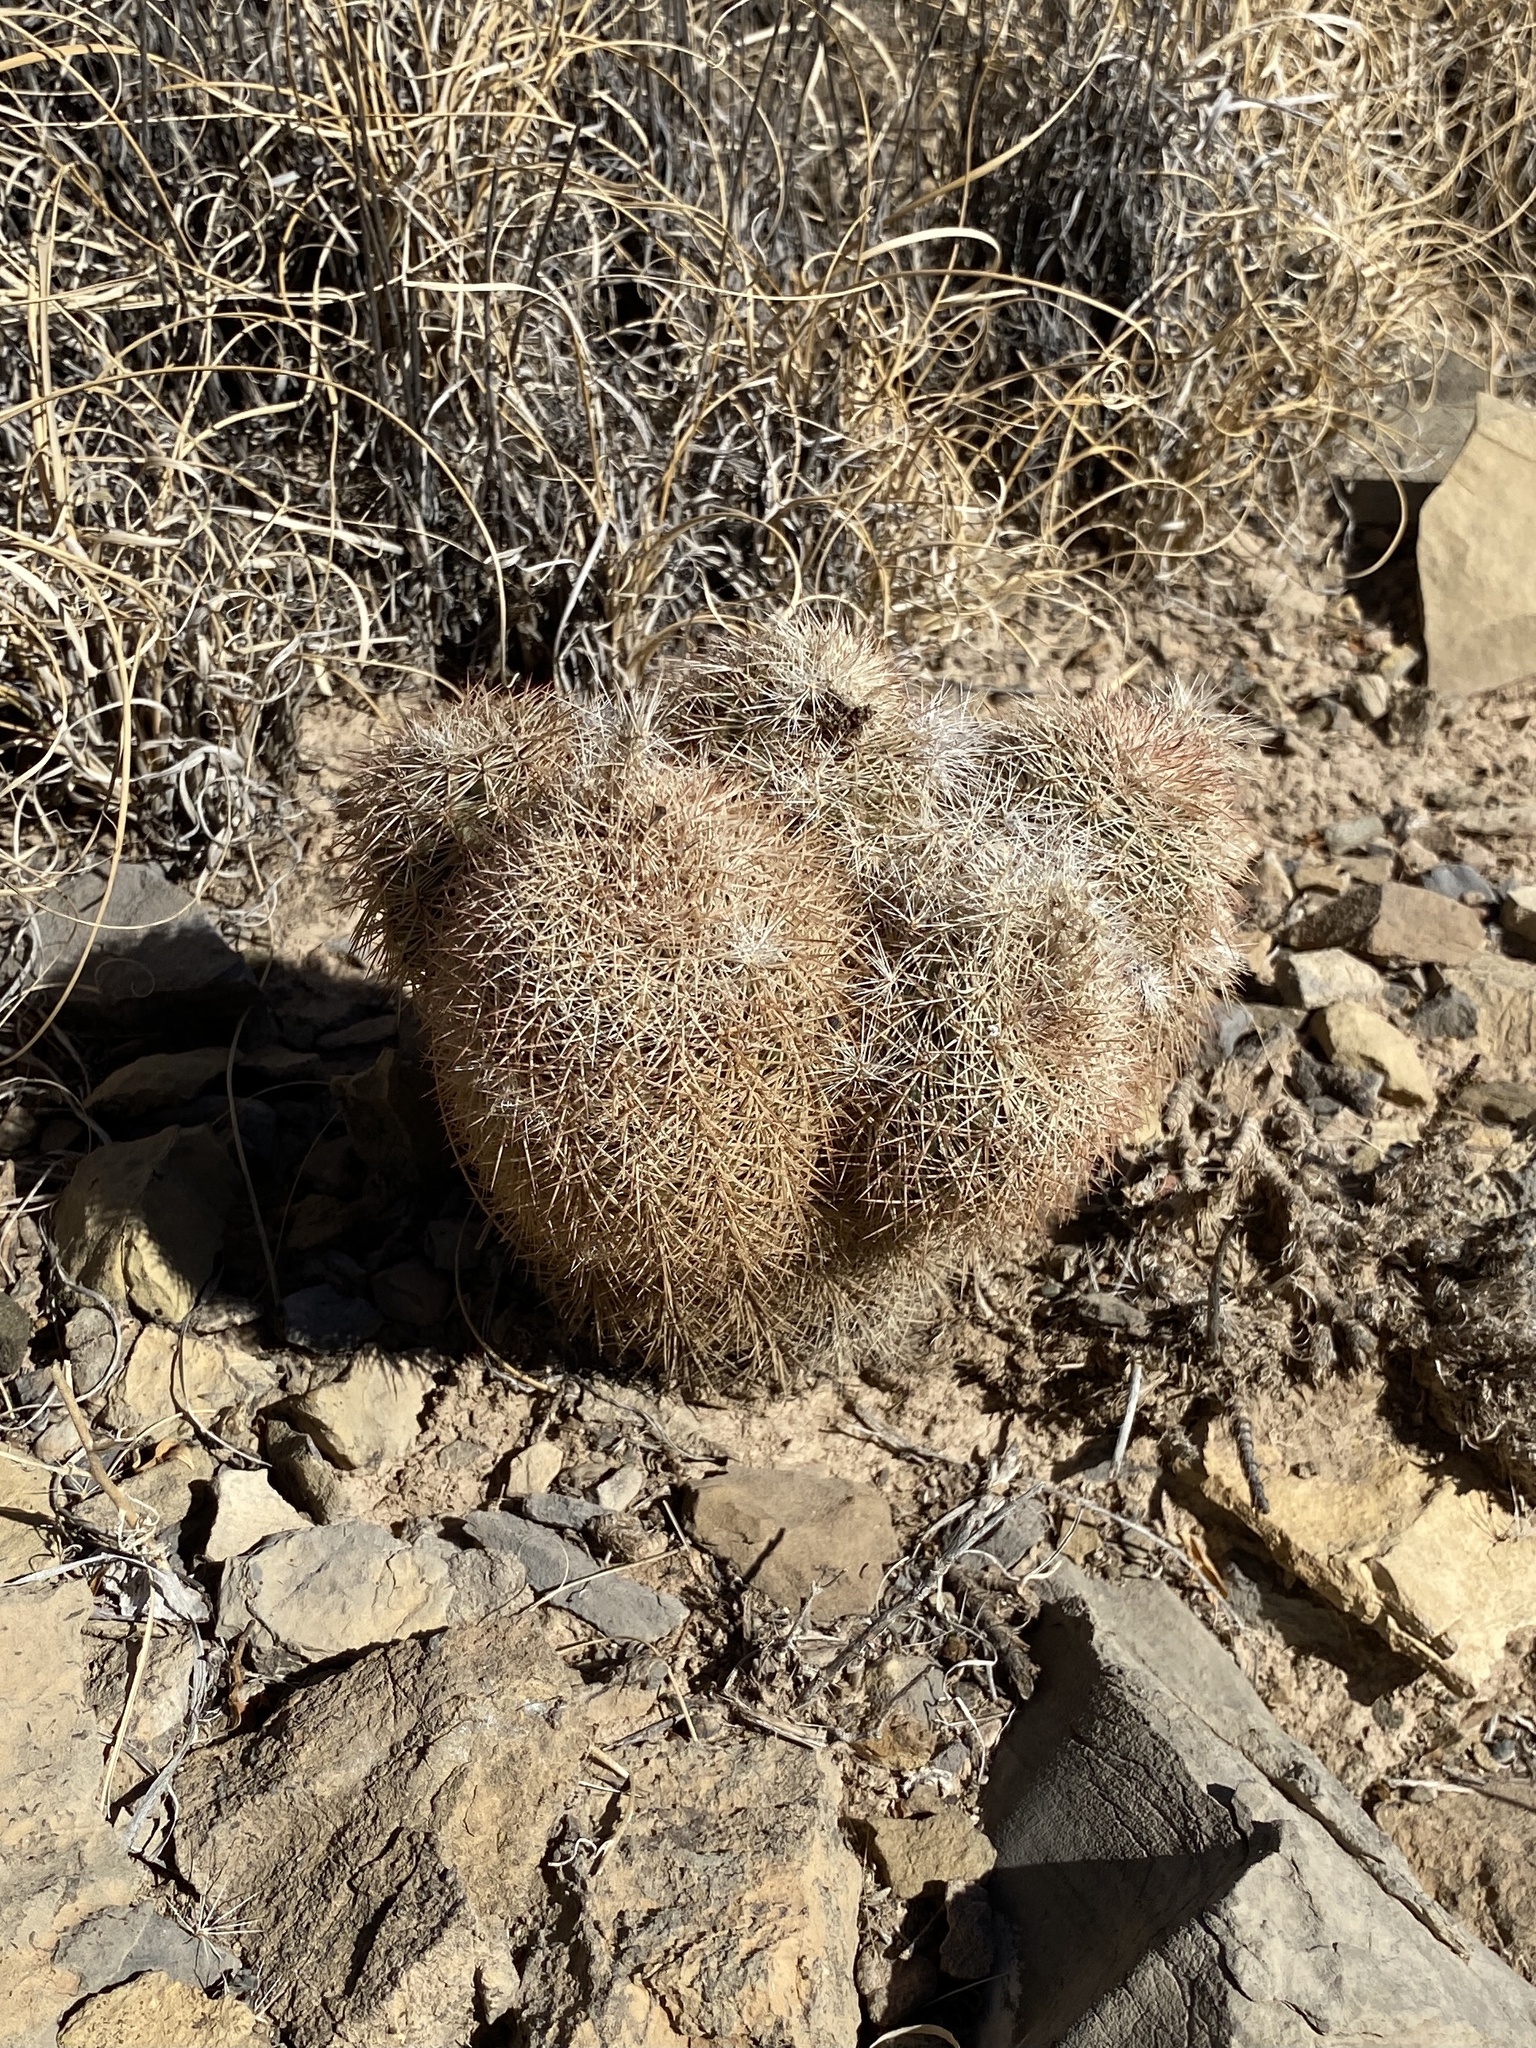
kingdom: Plantae
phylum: Tracheophyta
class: Magnoliopsida
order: Caryophyllales
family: Cactaceae
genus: Echinocereus
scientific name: Echinocereus dasyacanthus
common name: Spiny hedgehog cactus
